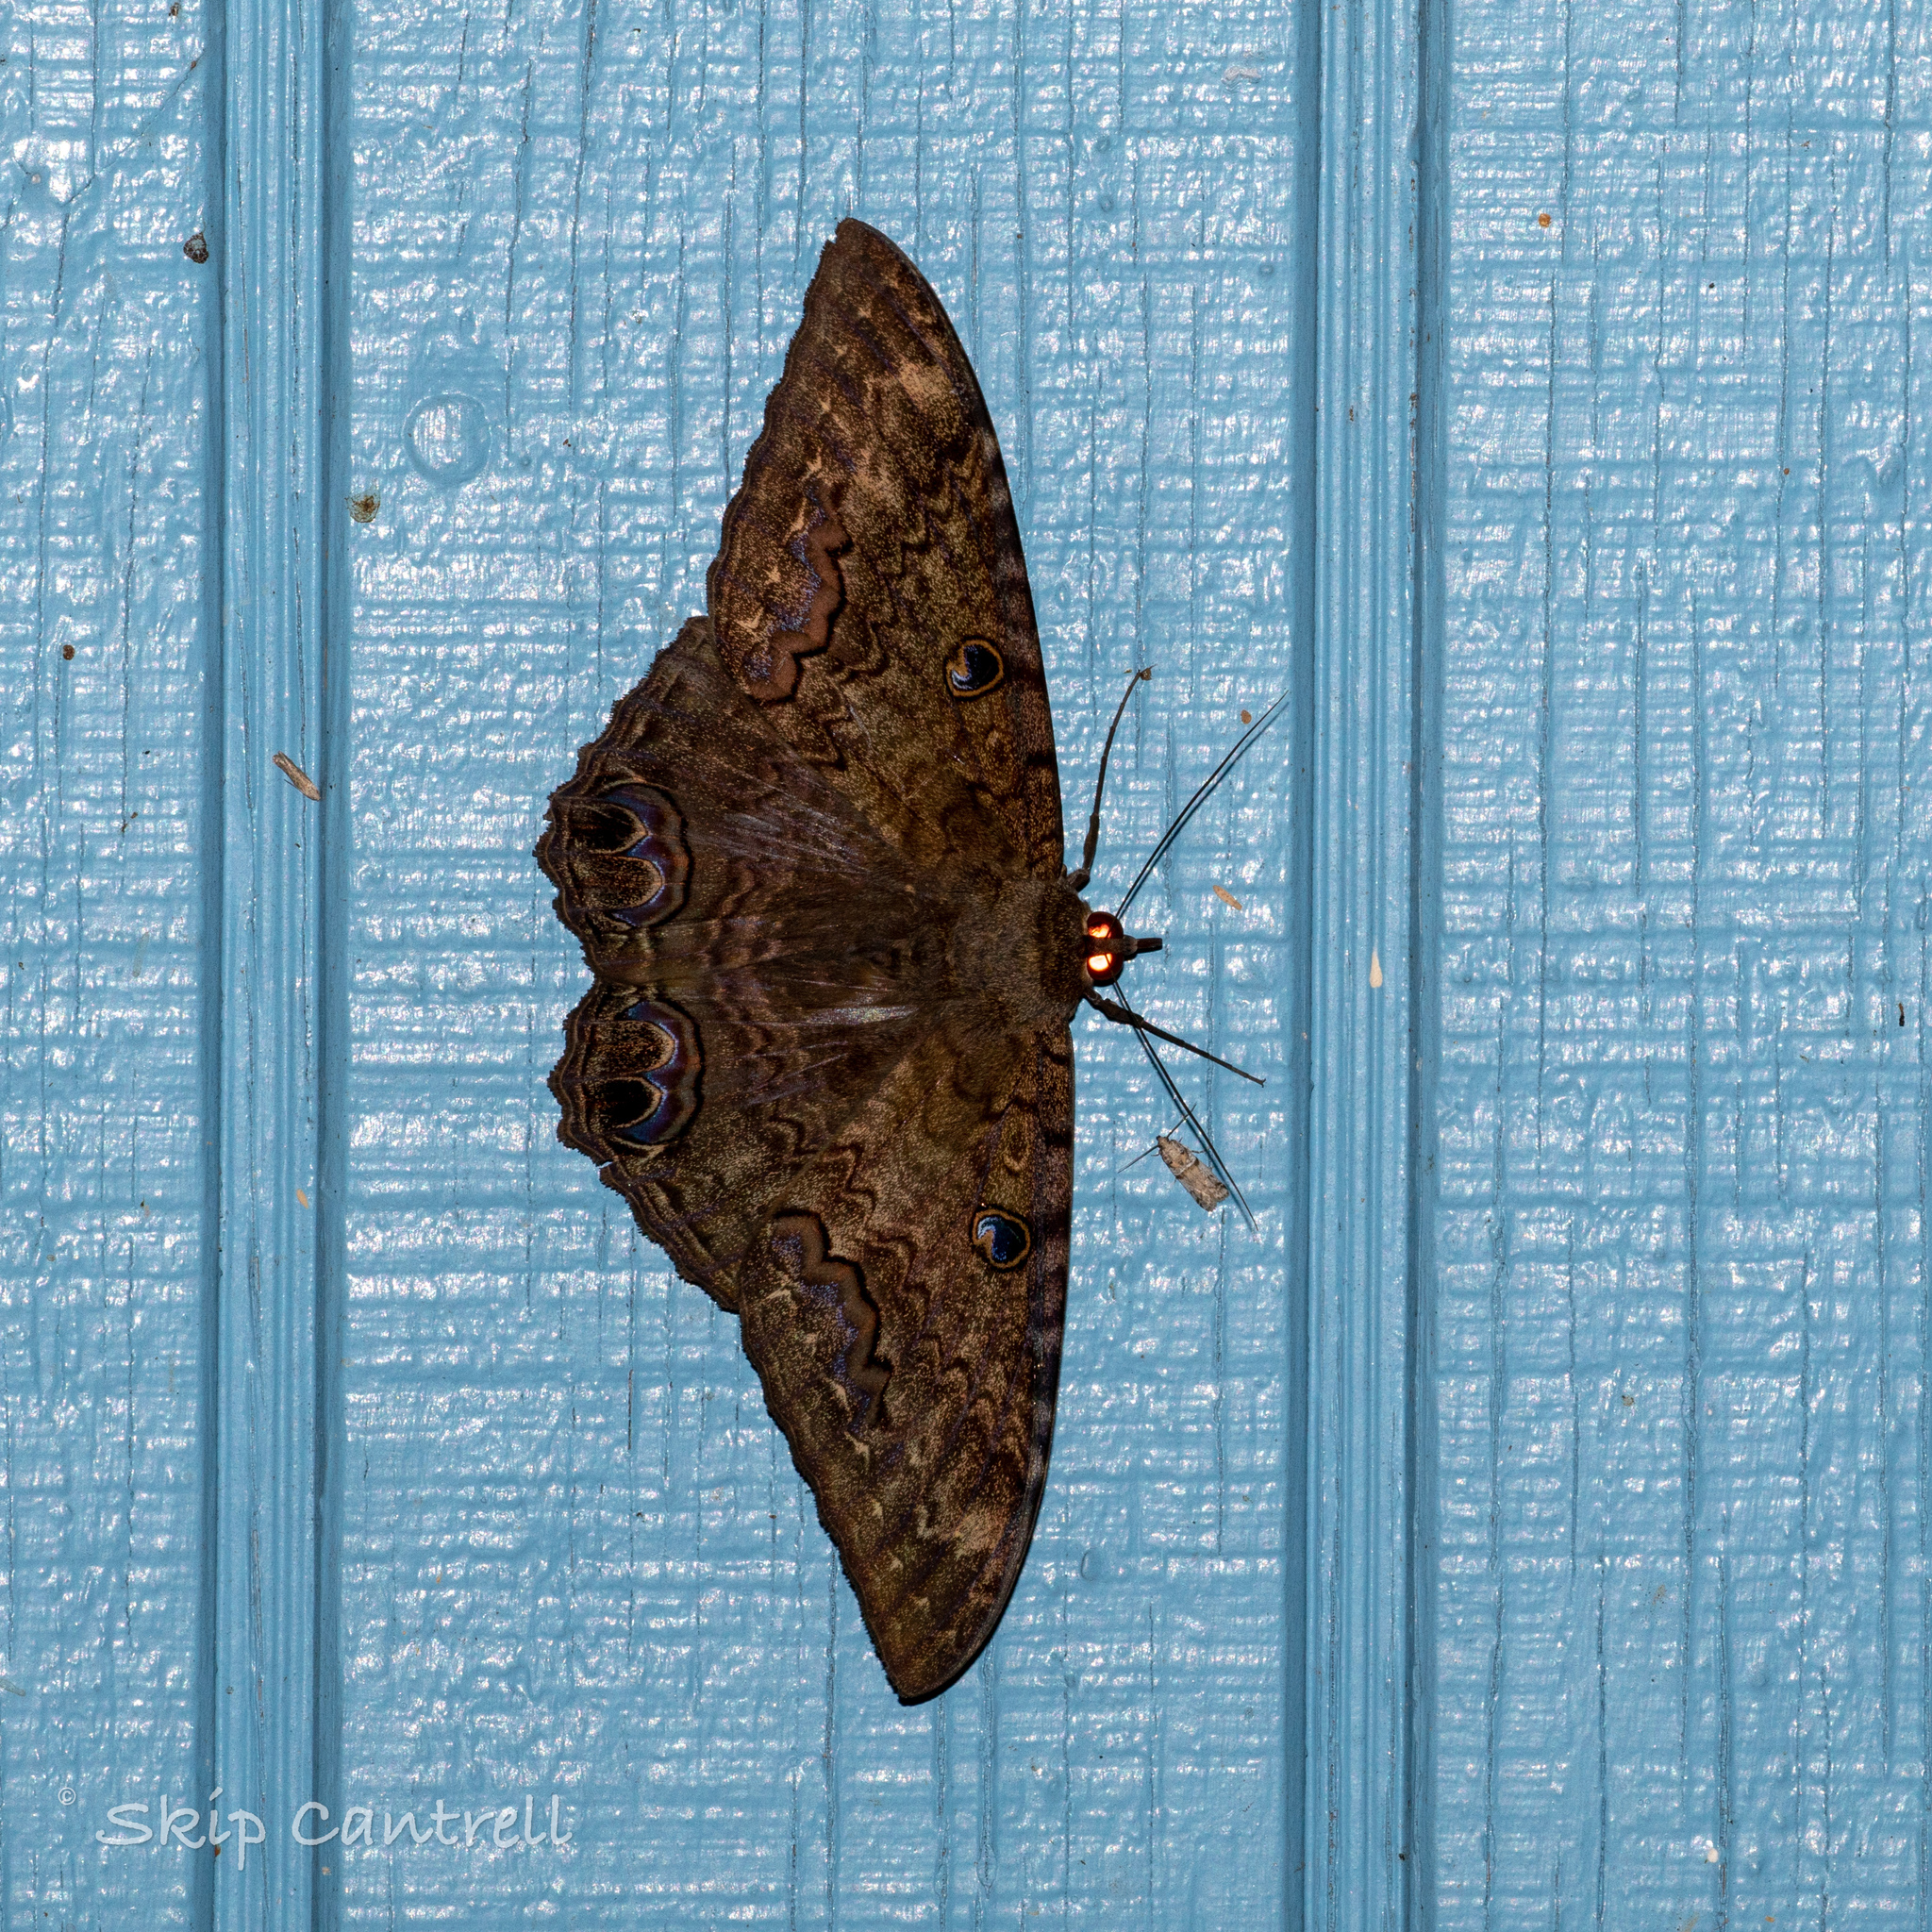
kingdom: Animalia
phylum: Arthropoda
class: Insecta
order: Lepidoptera
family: Erebidae
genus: Ascalapha
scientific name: Ascalapha odorata
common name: Black witch
